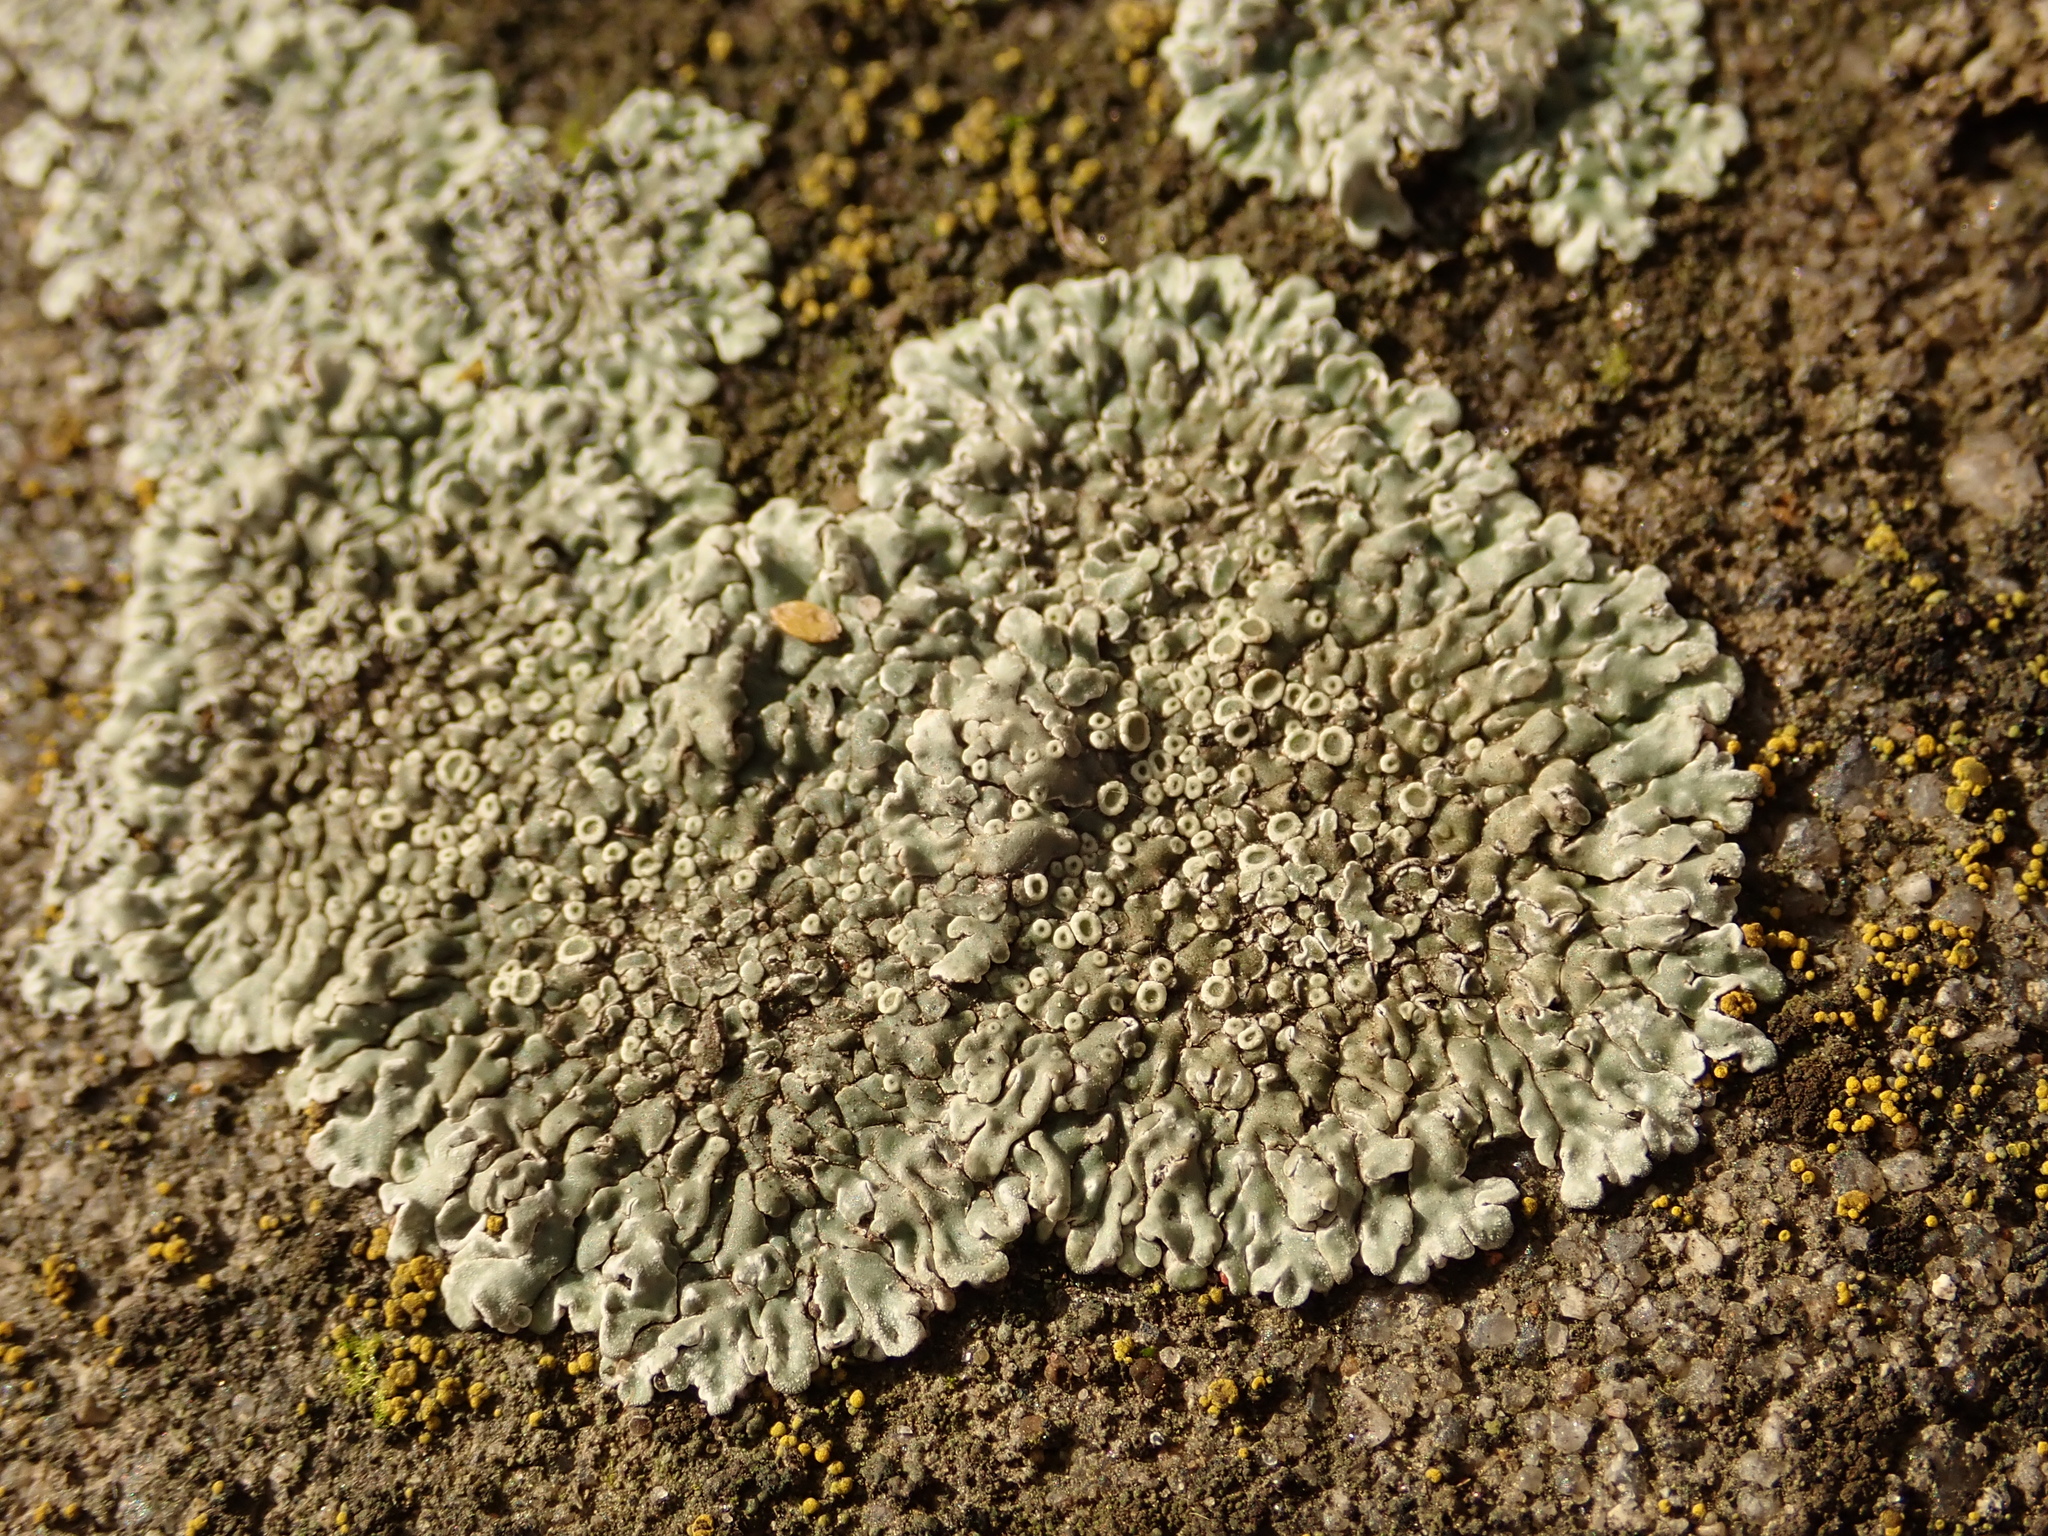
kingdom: Fungi
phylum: Ascomycota
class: Lecanoromycetes
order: Lecanorales
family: Lecanoraceae
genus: Protoparmeliopsis
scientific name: Protoparmeliopsis muralis
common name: Stonewall rim lichen
